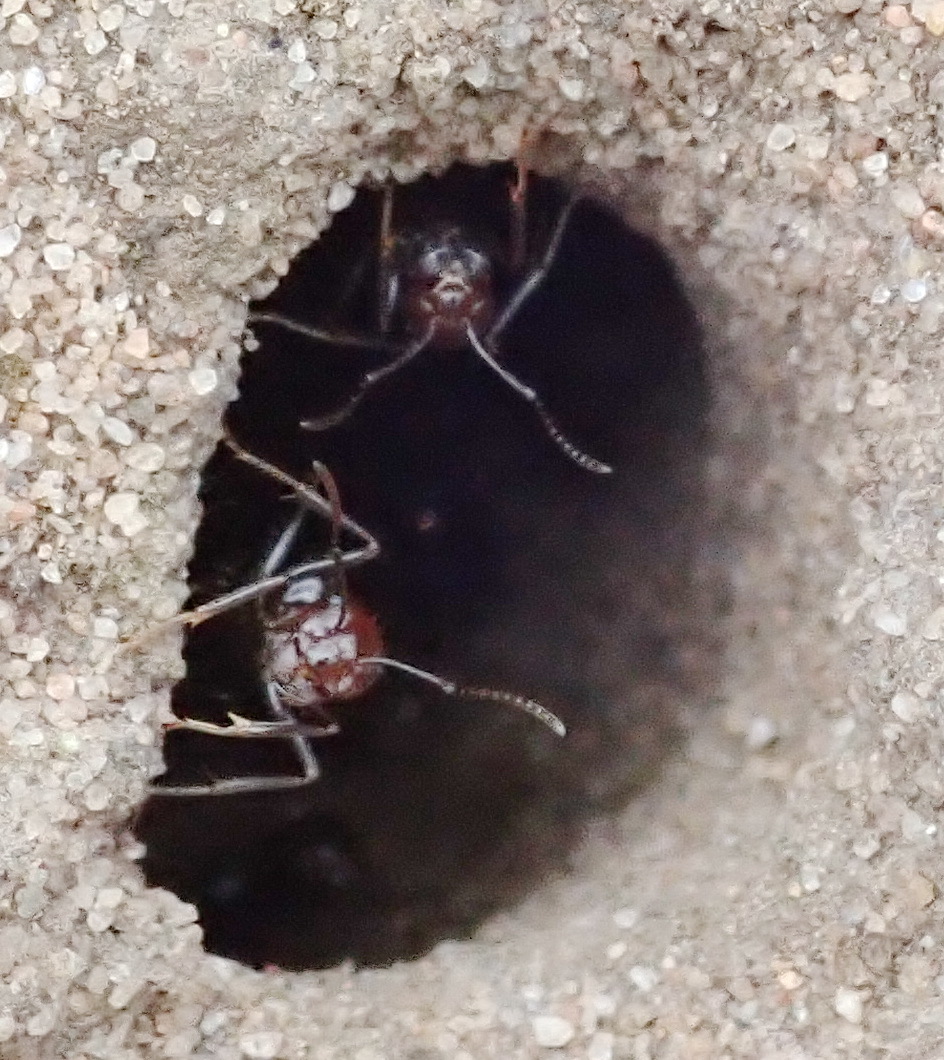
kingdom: Animalia
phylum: Arthropoda
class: Insecta
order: Hymenoptera
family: Formicidae
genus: Anoplolepis
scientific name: Anoplolepis steingroeveri
